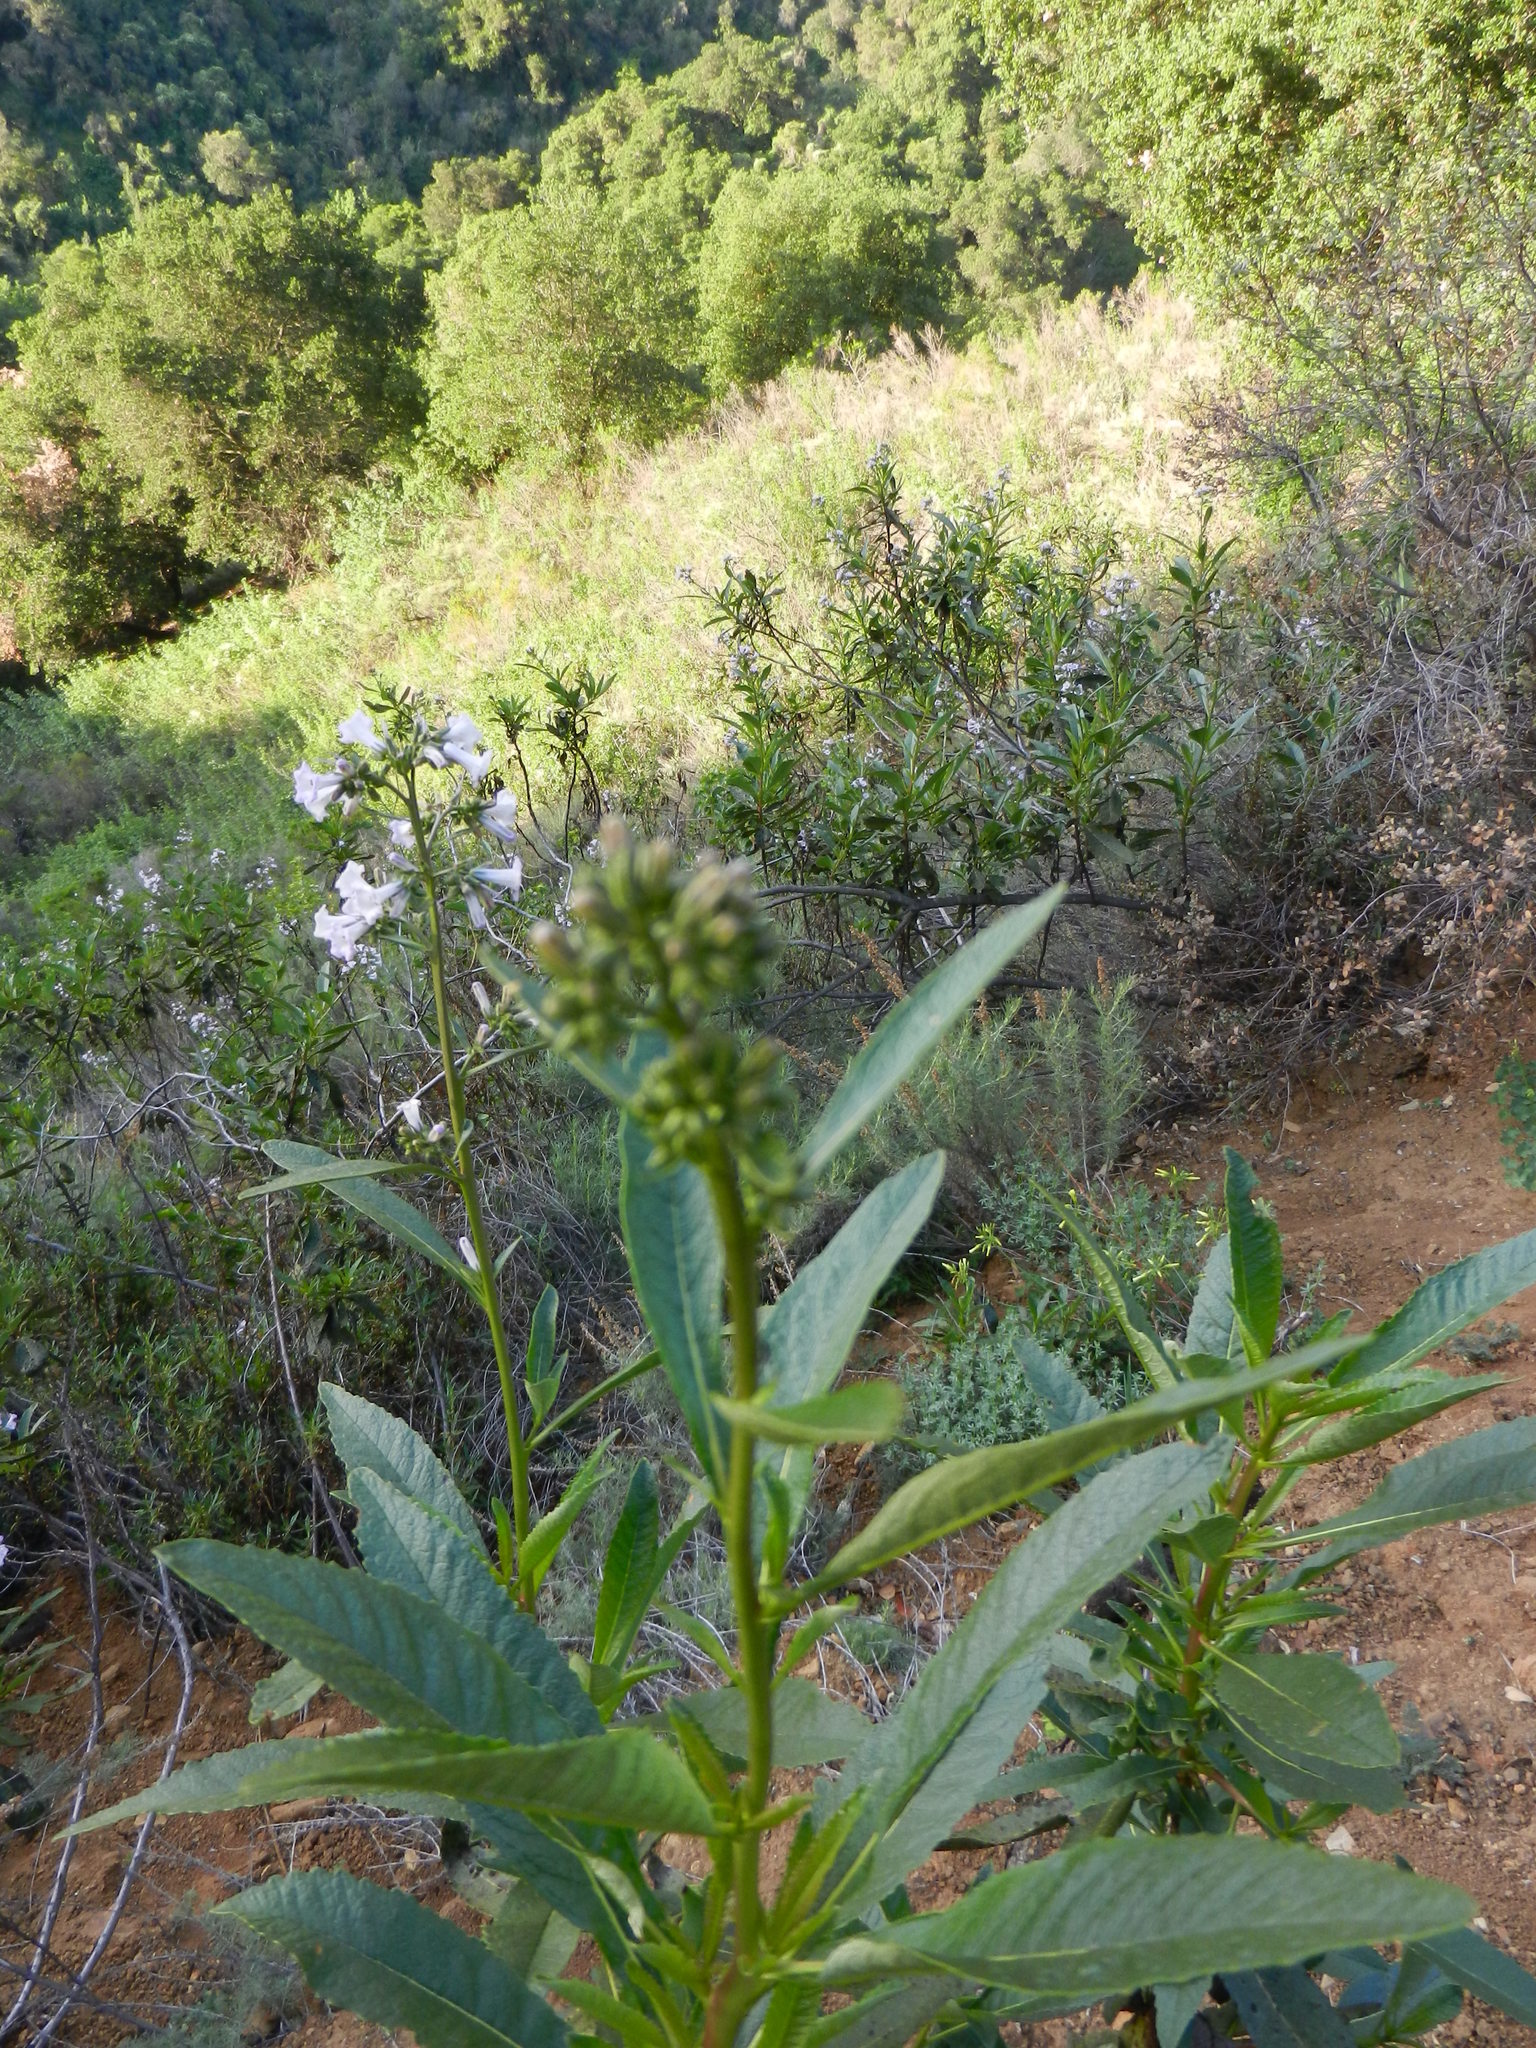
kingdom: Plantae
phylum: Tracheophyta
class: Magnoliopsida
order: Boraginales
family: Namaceae
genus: Eriodictyon
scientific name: Eriodictyon californicum
